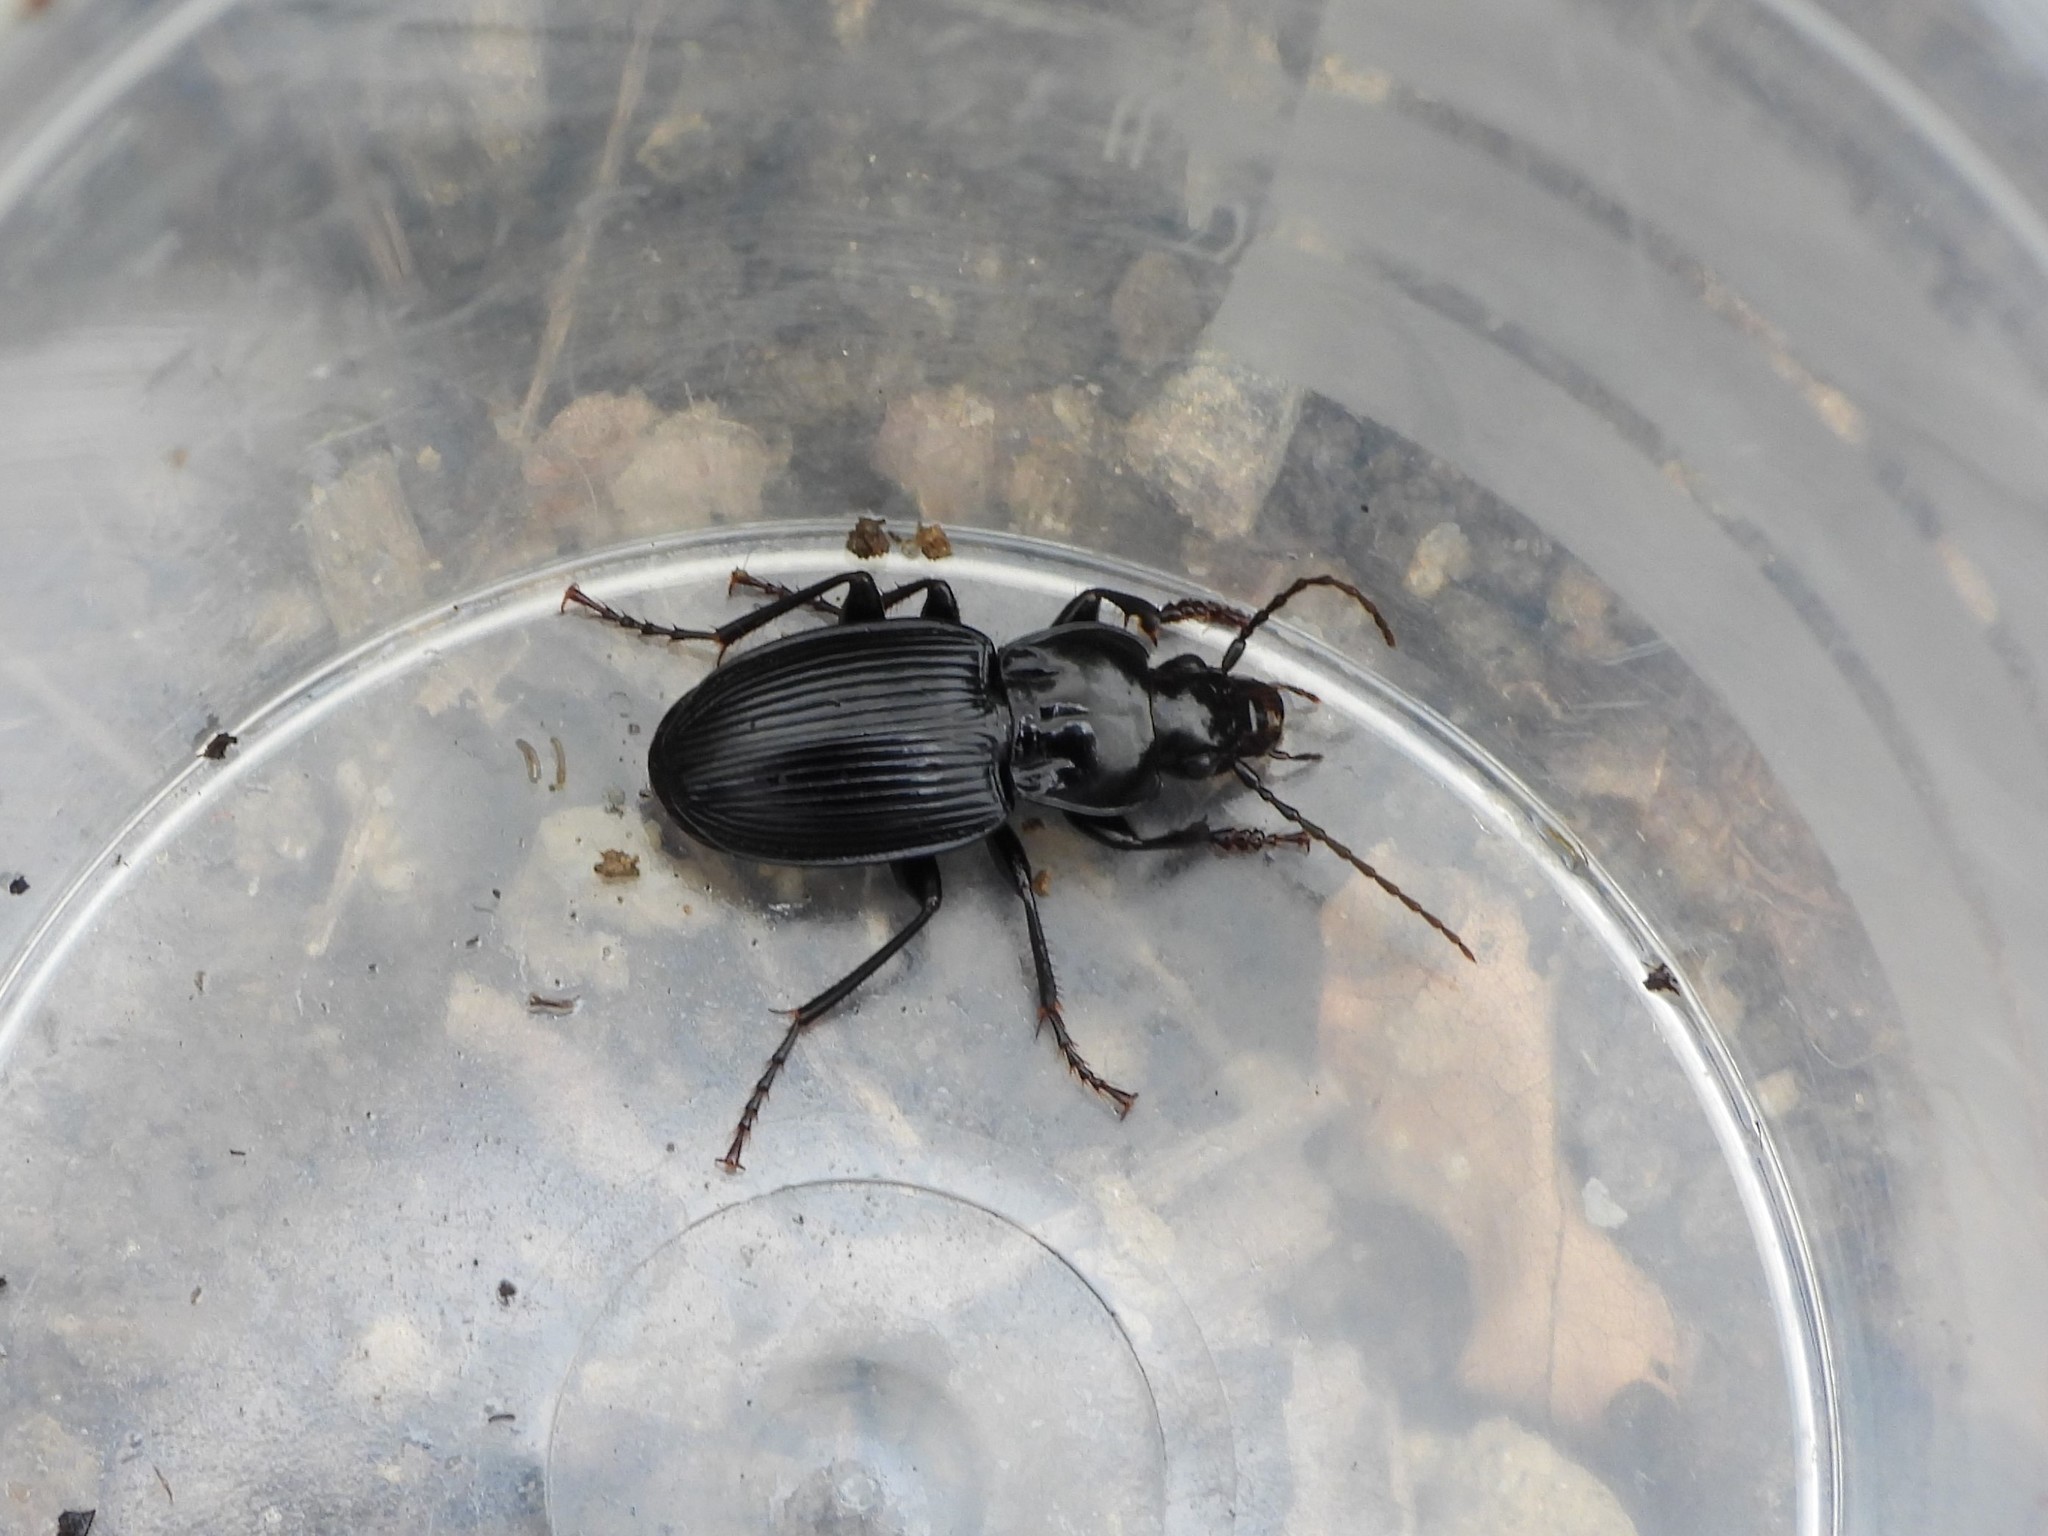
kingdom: Animalia
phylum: Arthropoda
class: Insecta
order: Coleoptera
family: Carabidae
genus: Pterostichus
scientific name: Pterostichus pedemontanus
